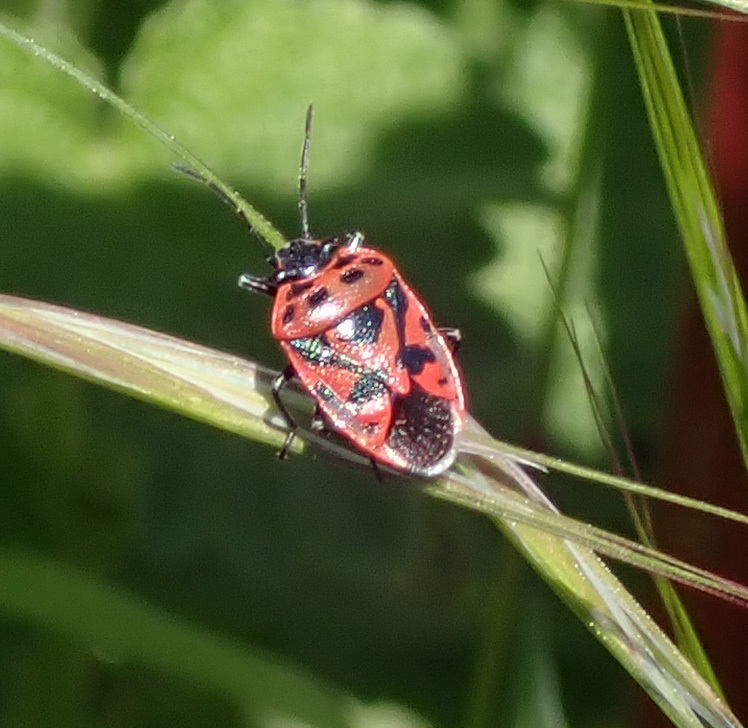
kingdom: Animalia
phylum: Arthropoda
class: Insecta
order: Hemiptera
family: Pentatomidae
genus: Eurydema
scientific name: Eurydema ornata
